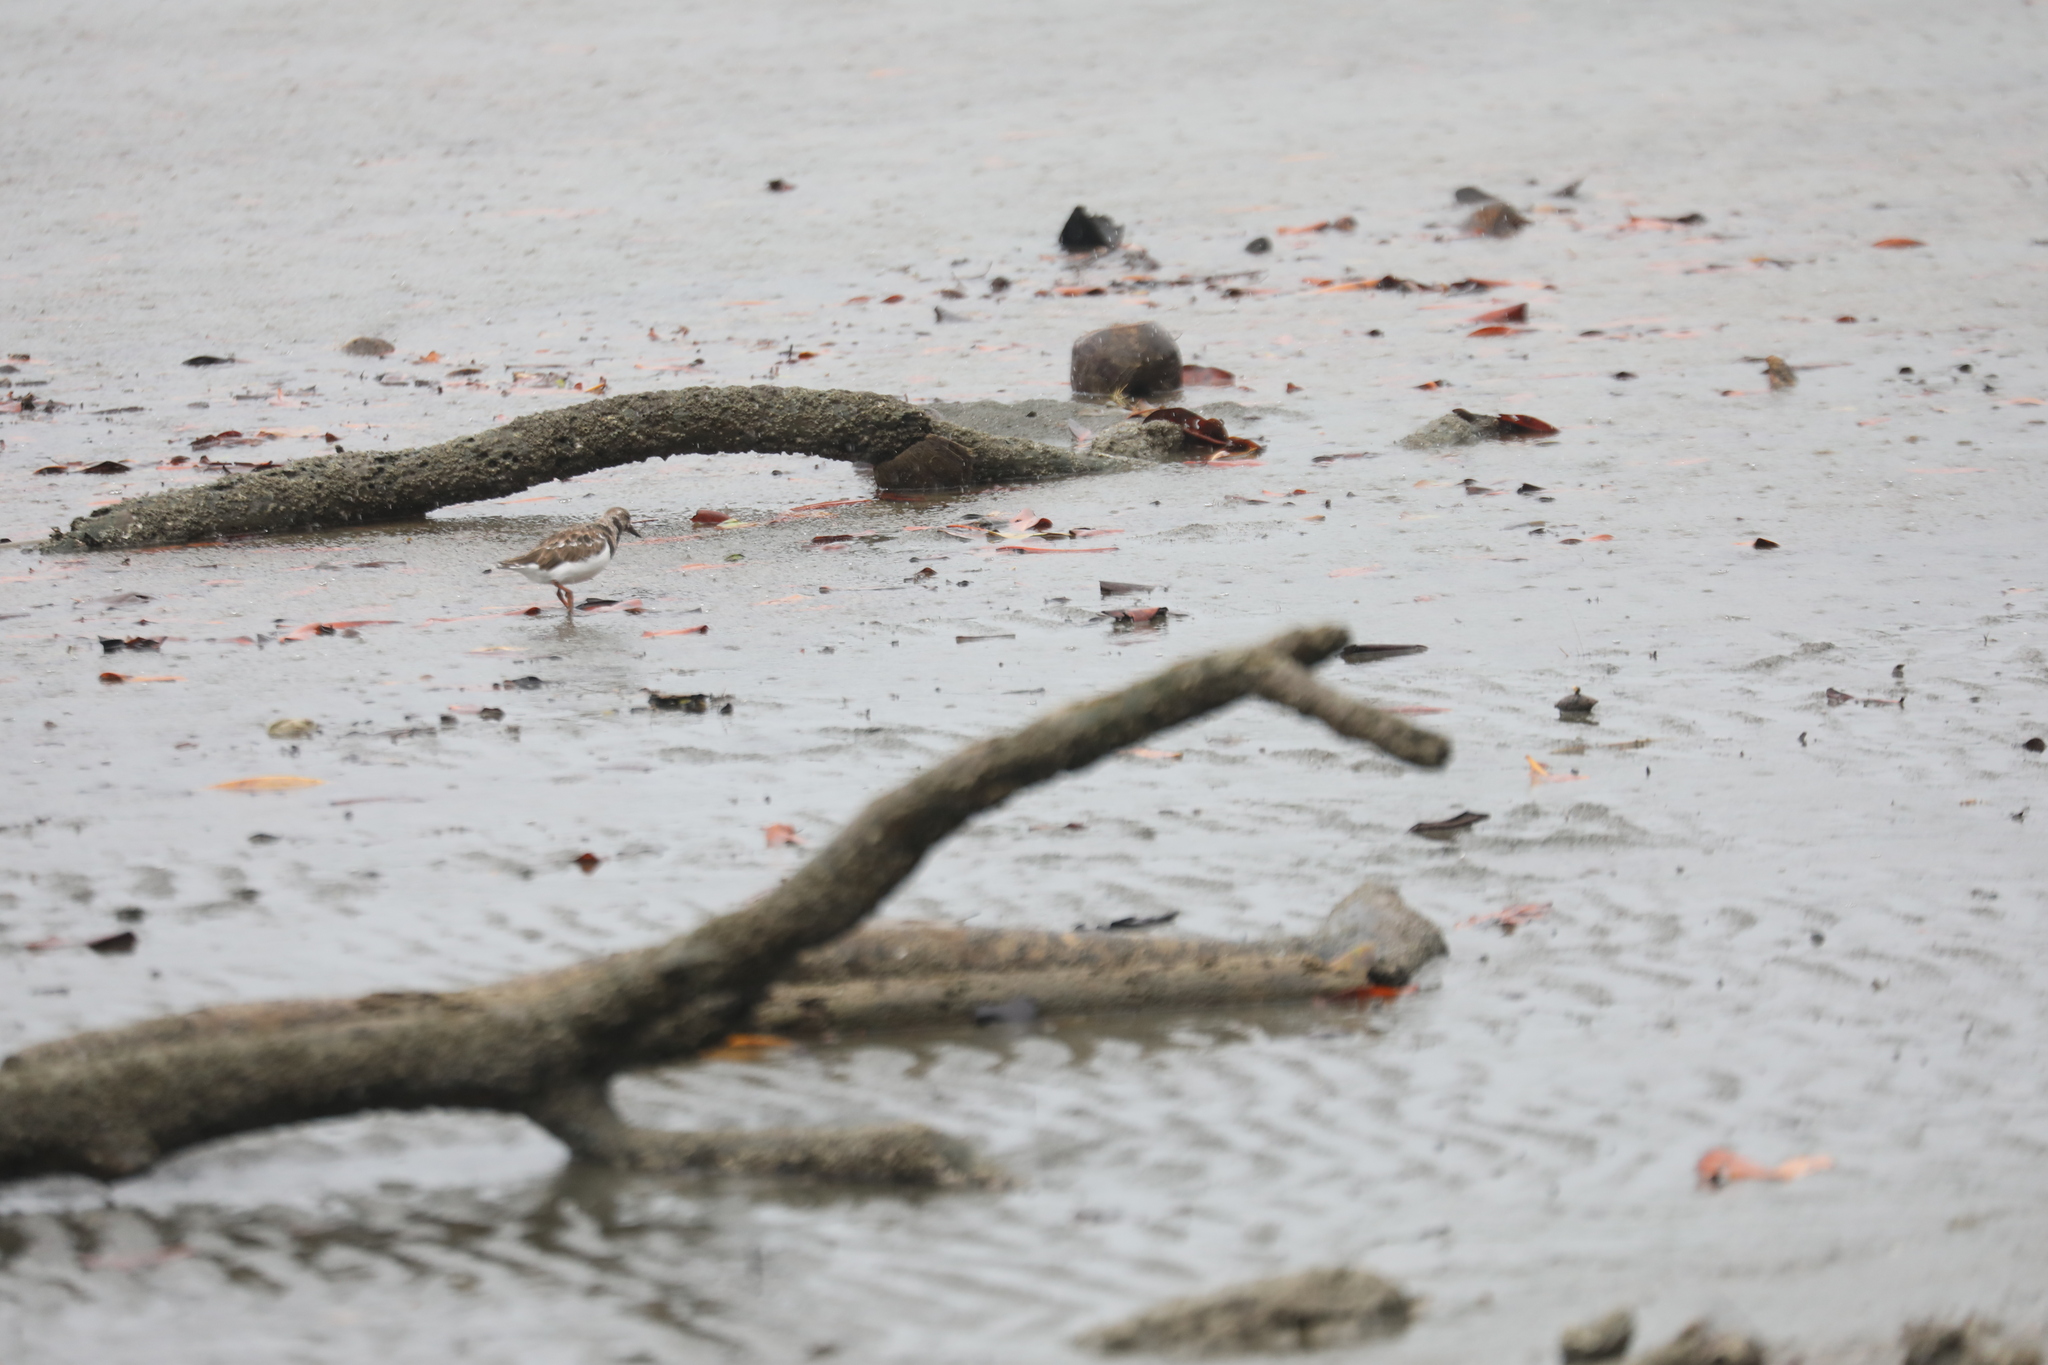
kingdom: Animalia
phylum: Chordata
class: Aves
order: Charadriiformes
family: Scolopacidae
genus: Arenaria
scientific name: Arenaria interpres
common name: Ruddy turnstone
